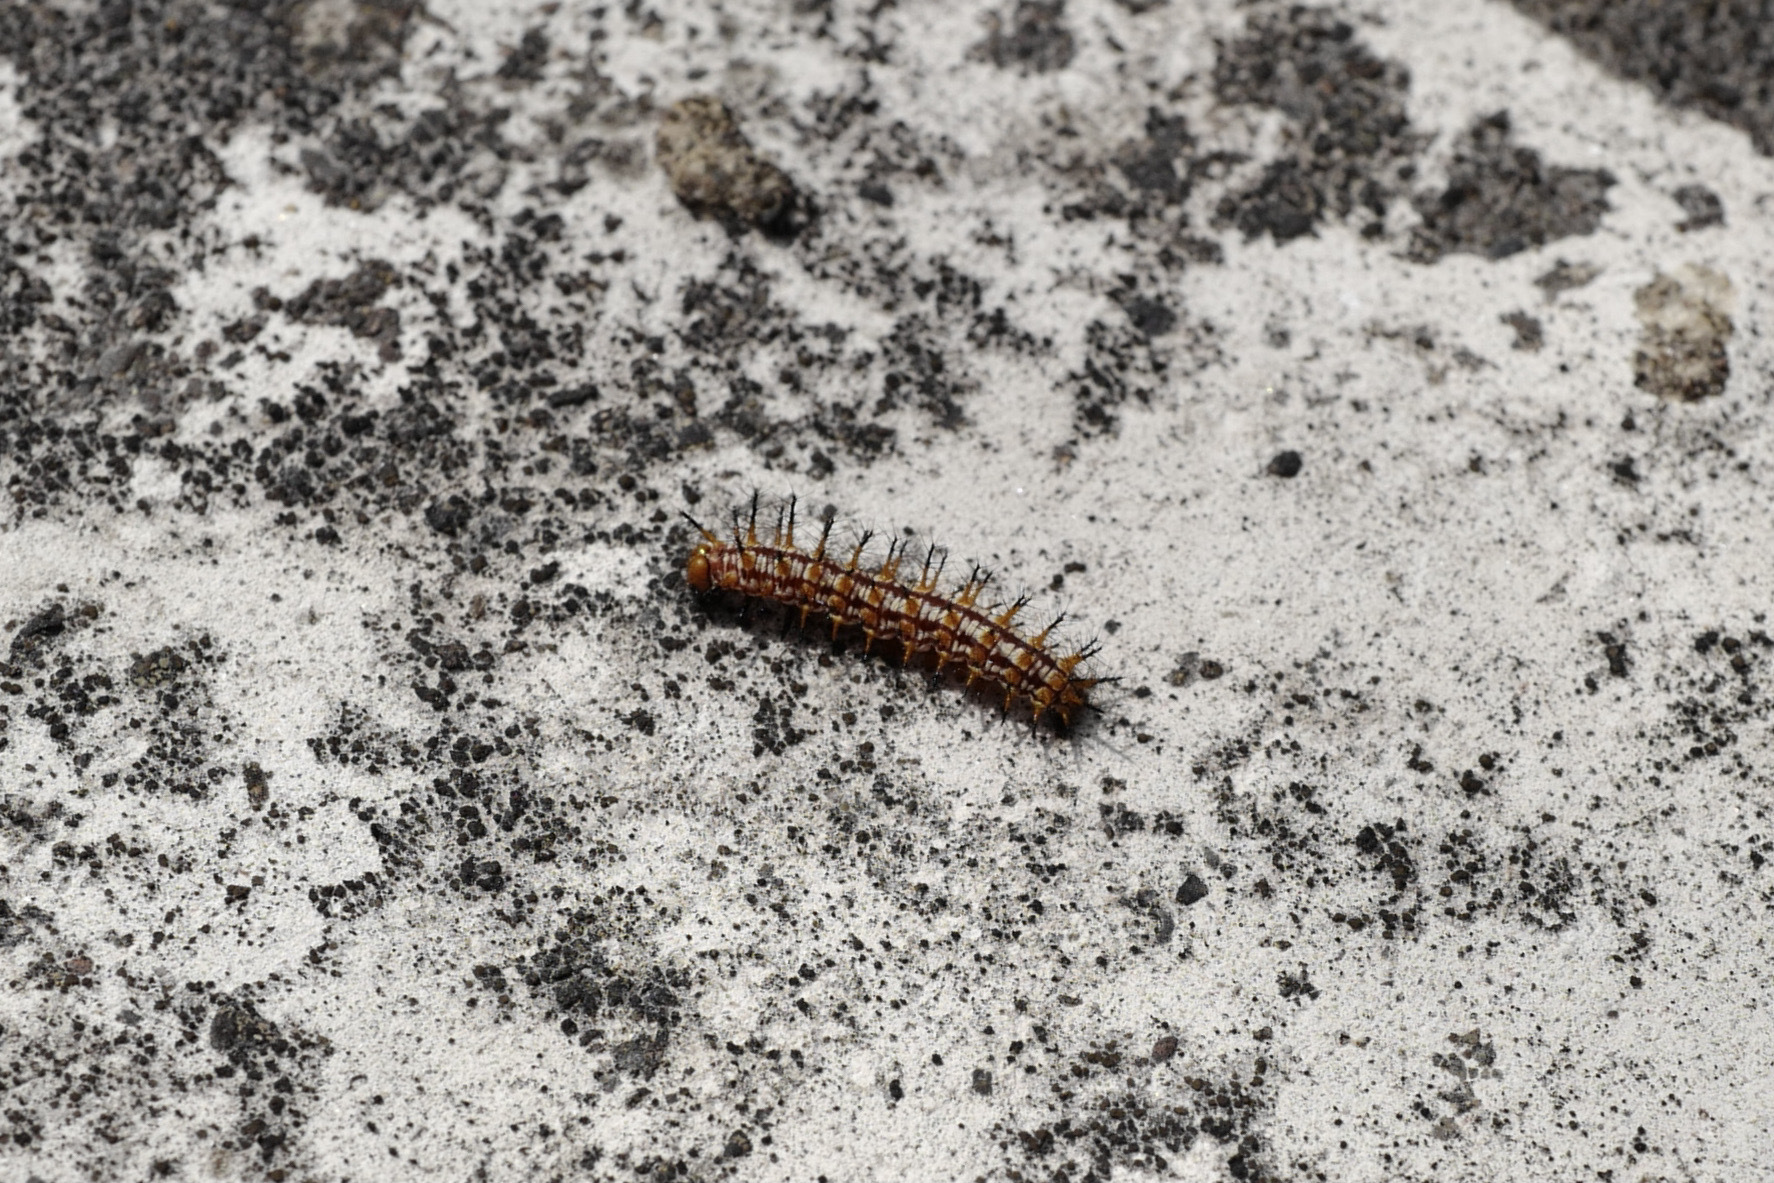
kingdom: Animalia
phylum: Arthropoda
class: Insecta
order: Lepidoptera
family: Nymphalidae
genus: Acraea
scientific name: Acraea Telchinia issoria
